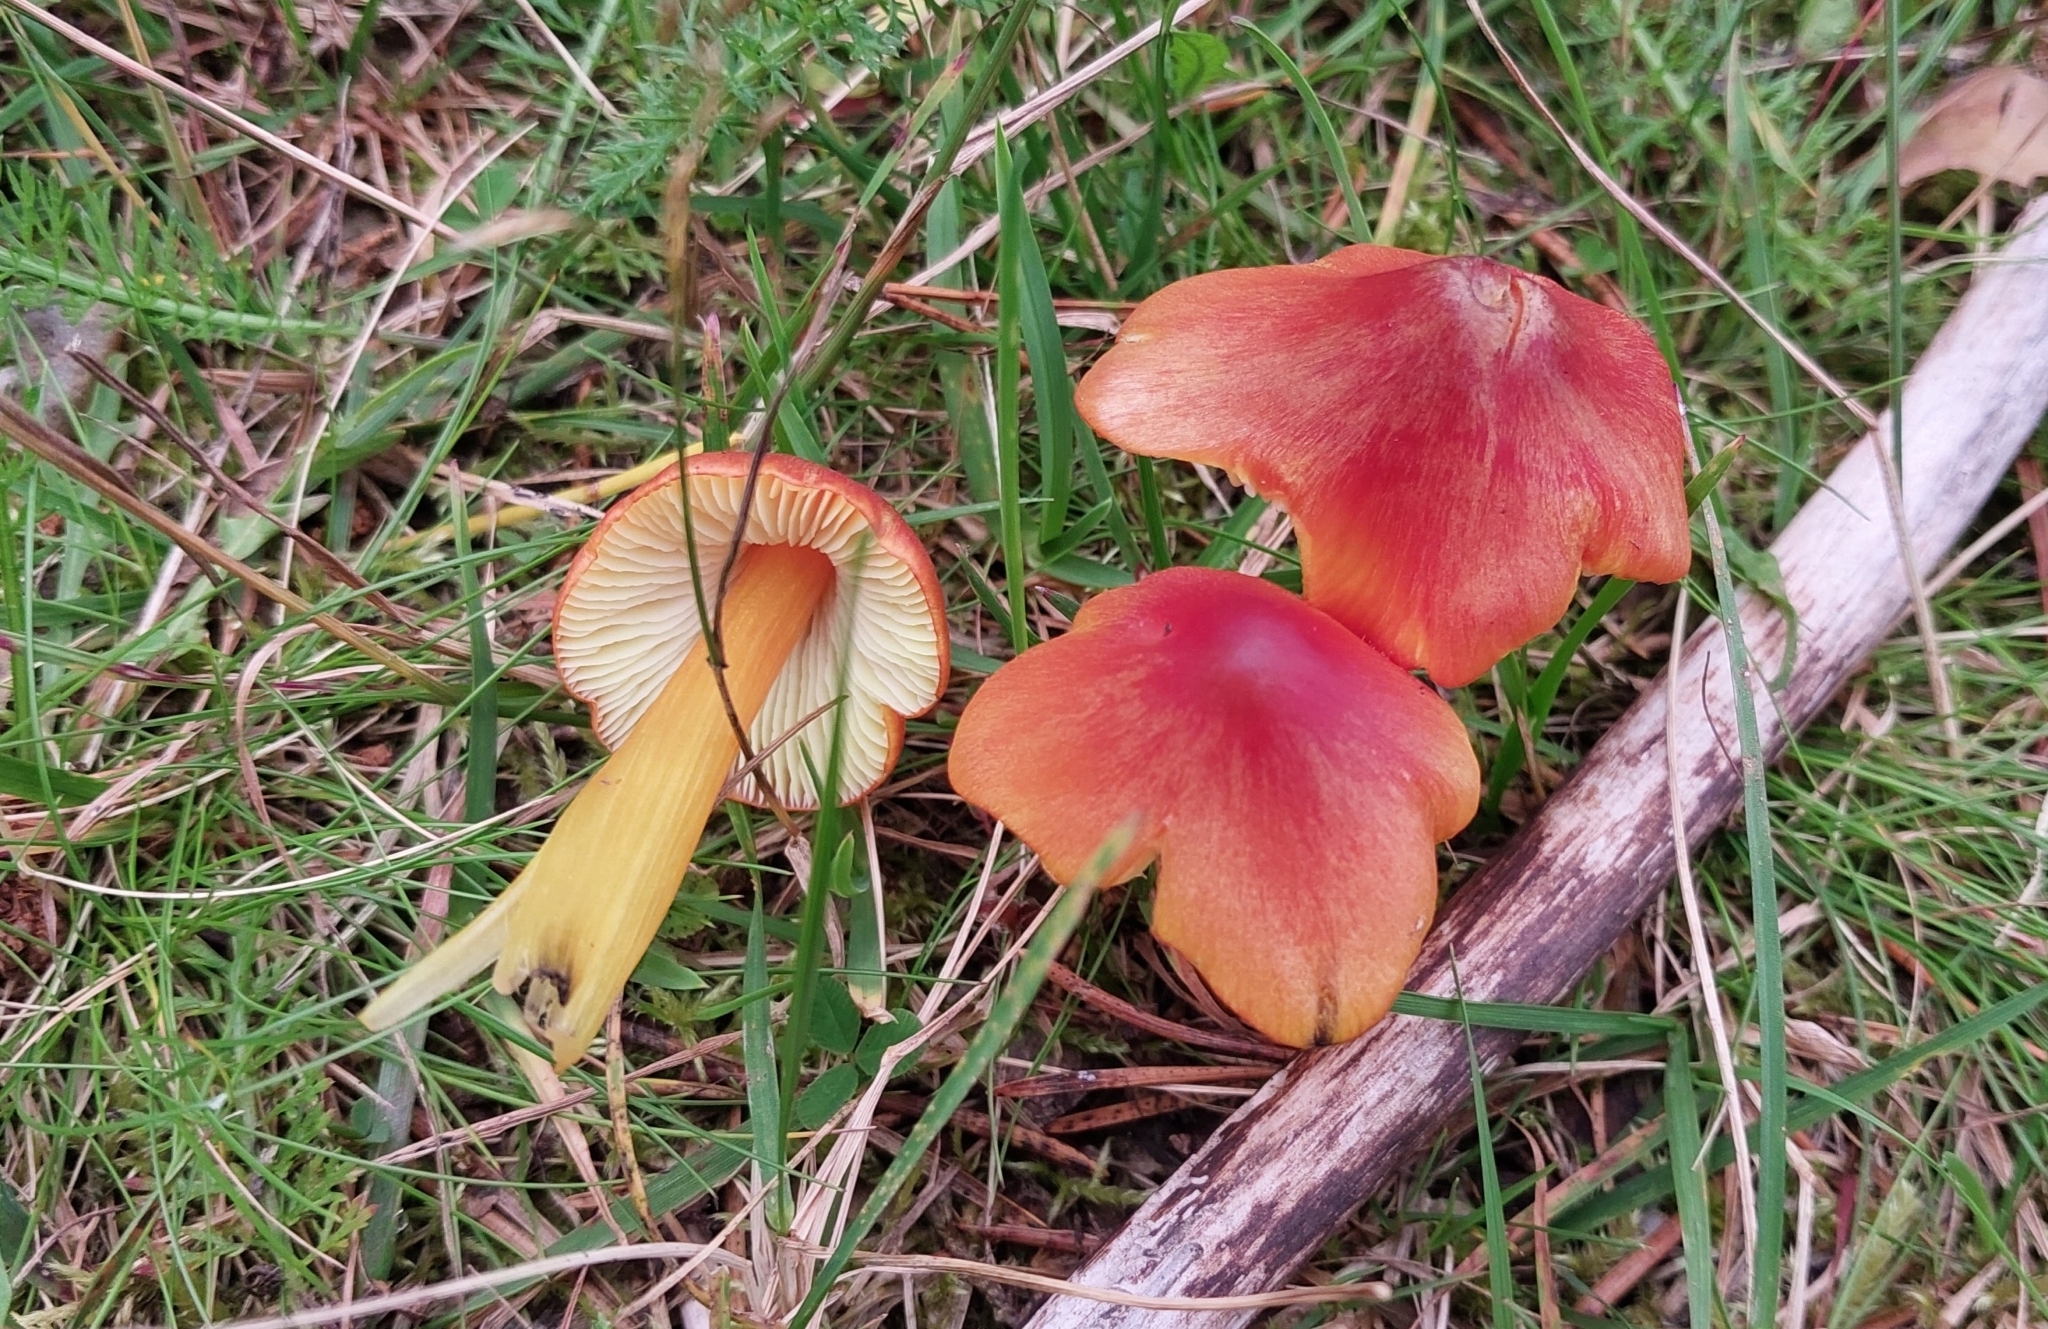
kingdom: Fungi
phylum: Basidiomycota
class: Agaricomycetes
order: Agaricales
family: Hygrophoraceae
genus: Hygrocybe
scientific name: Hygrocybe conica
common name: Blackening wax-cap
